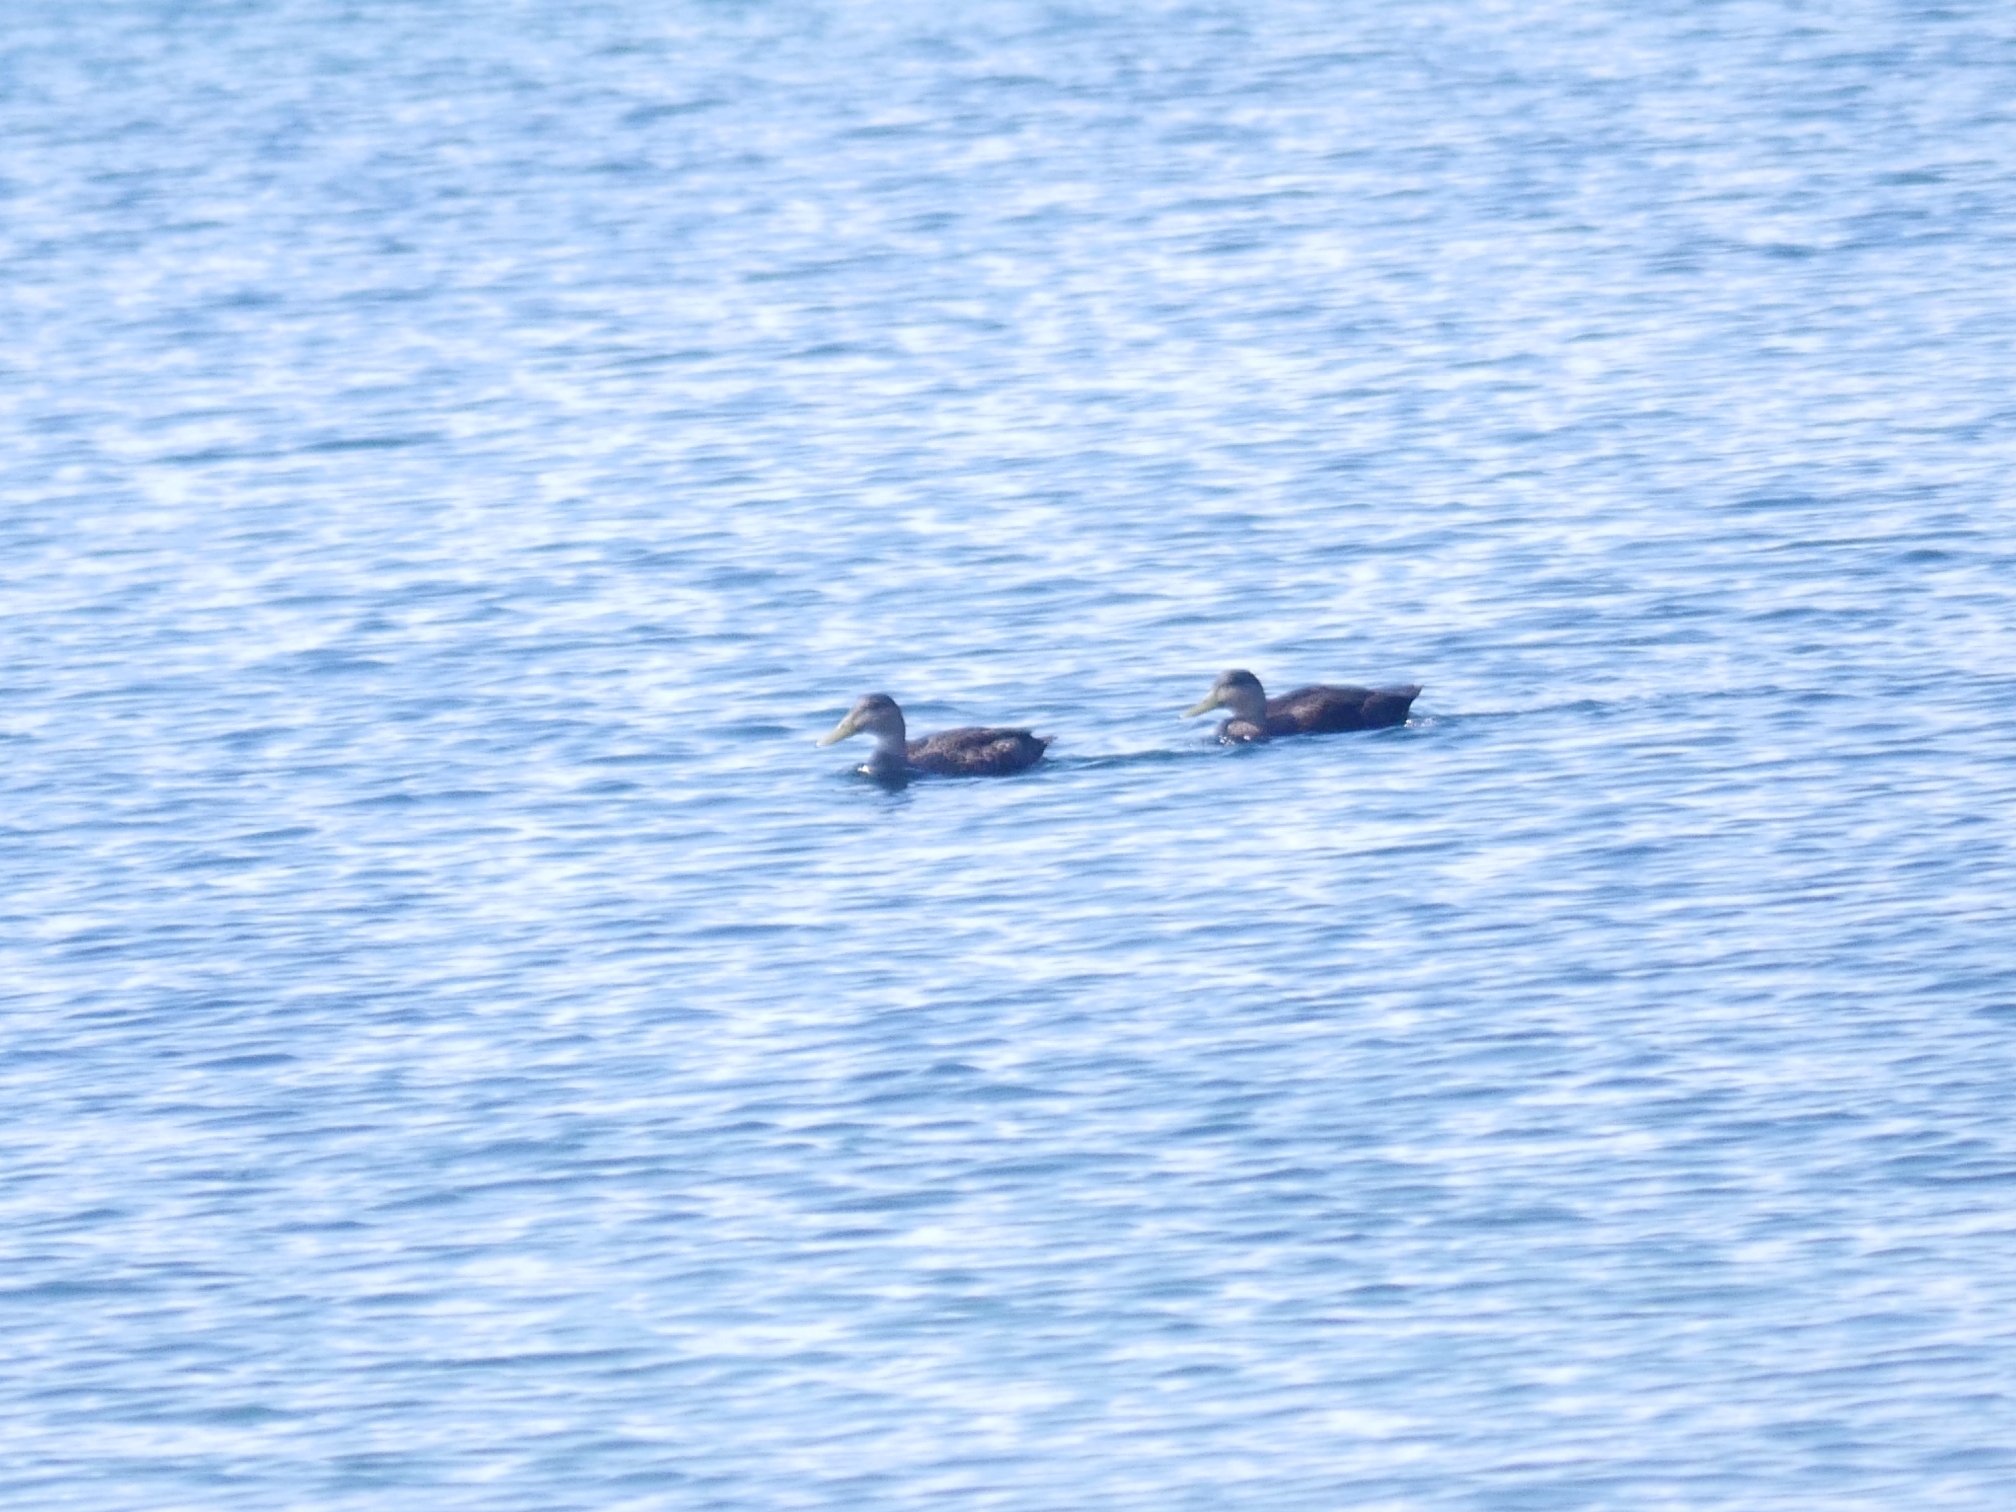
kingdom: Animalia
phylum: Chordata
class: Aves
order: Anseriformes
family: Anatidae
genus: Anas
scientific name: Anas rubripes
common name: American black duck
